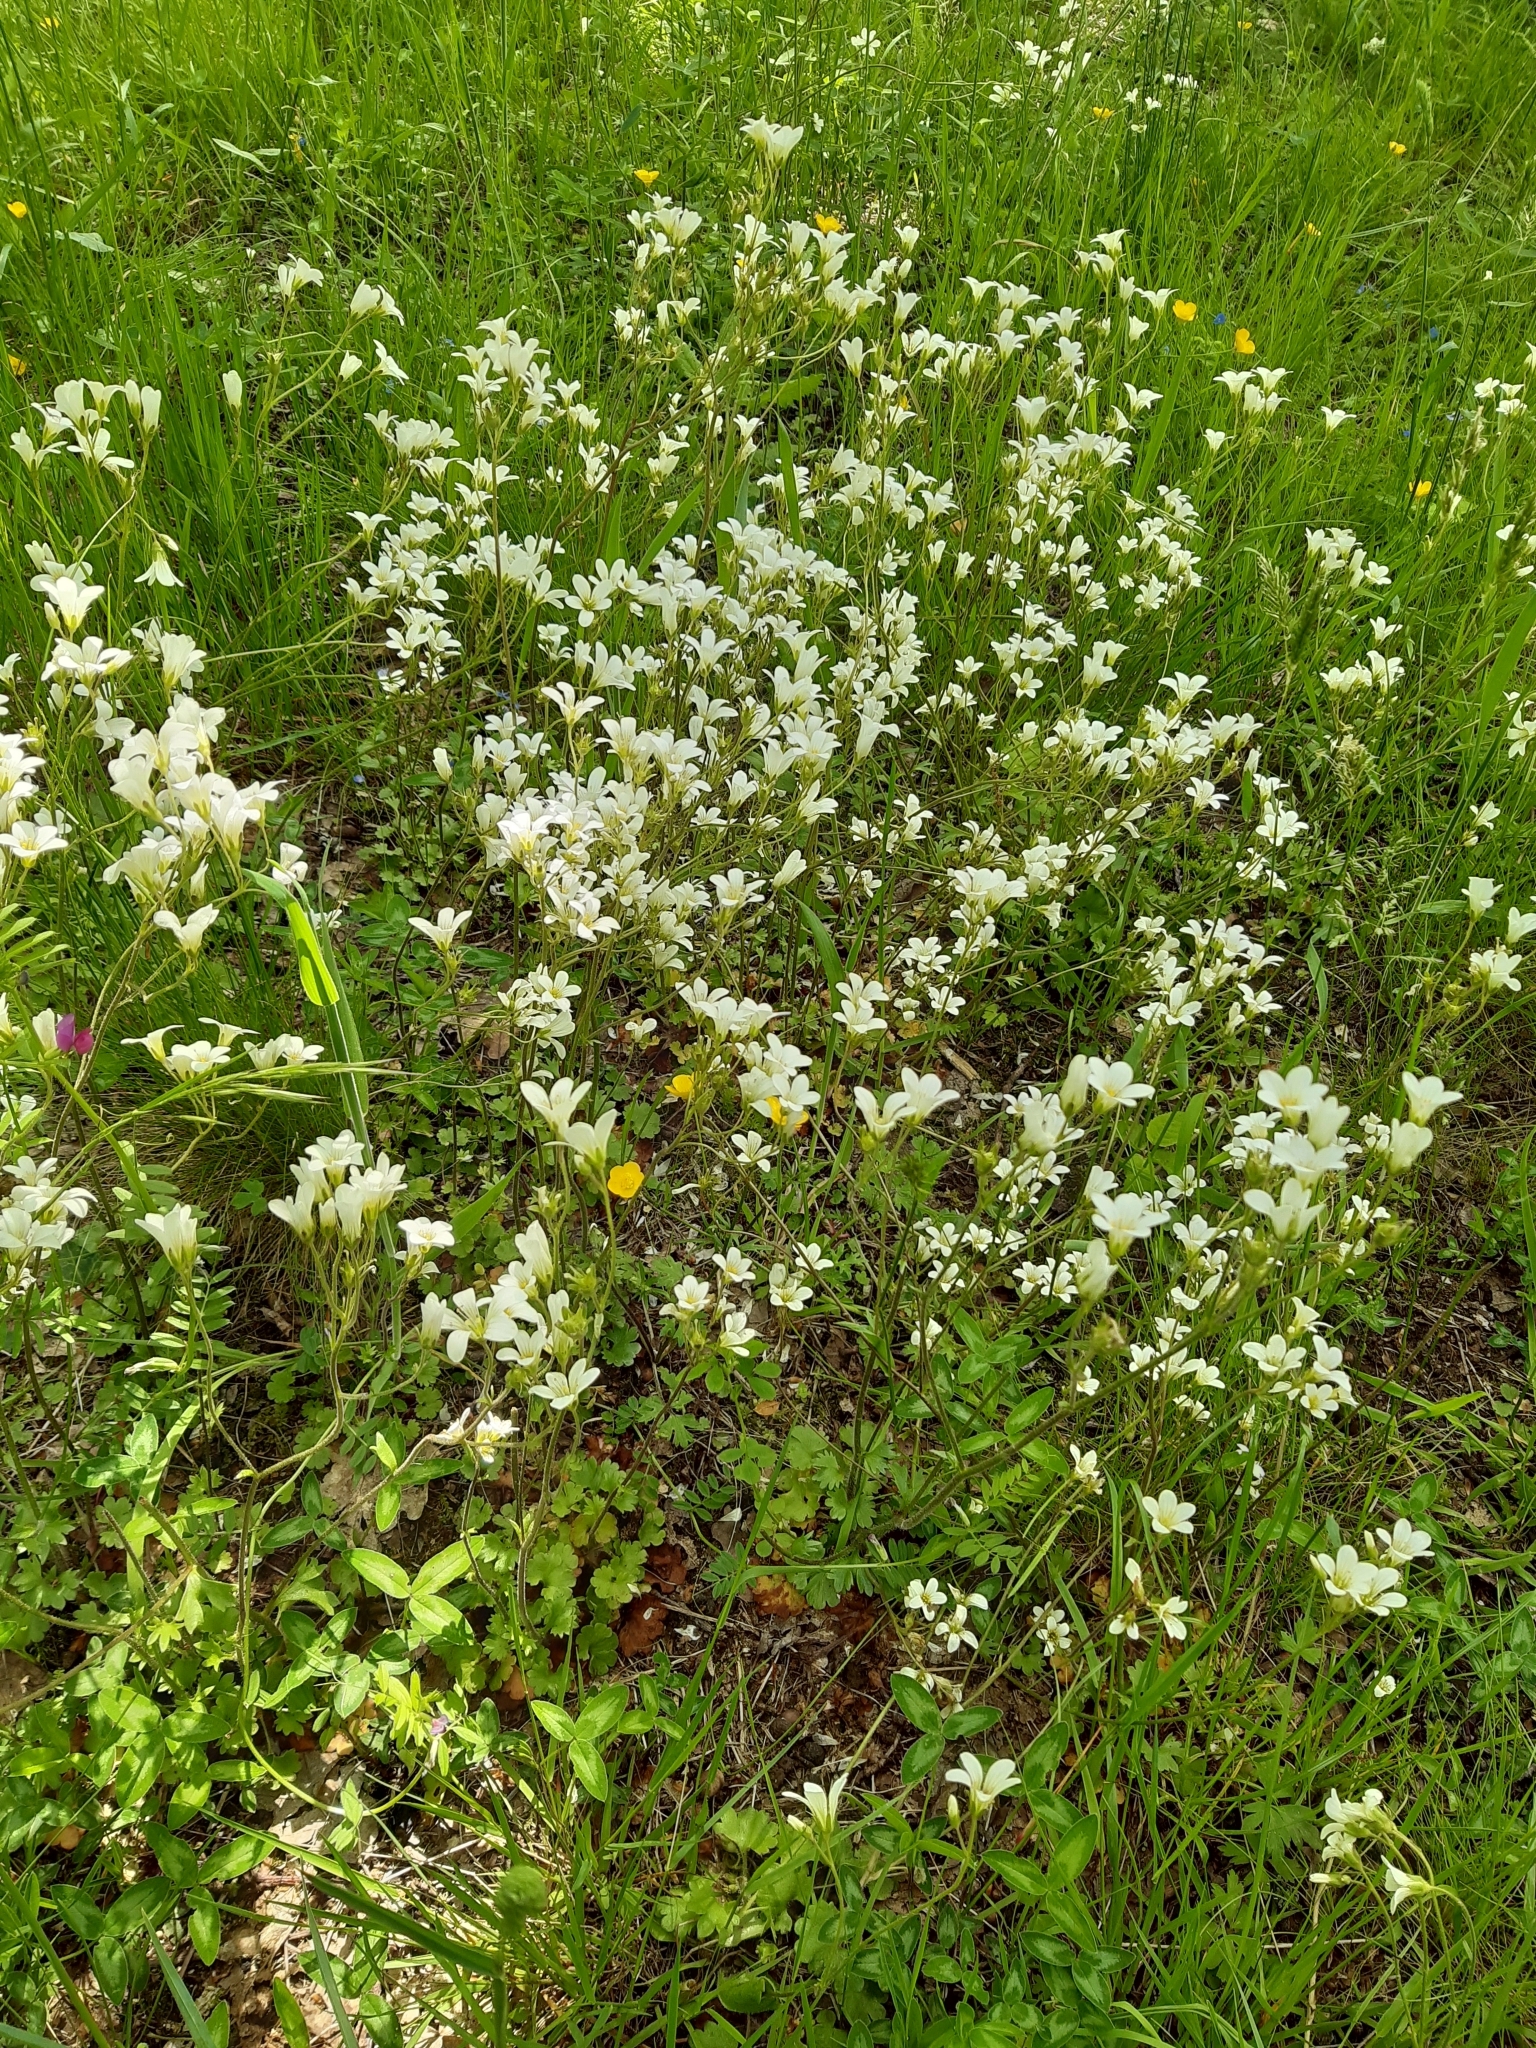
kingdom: Plantae
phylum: Tracheophyta
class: Magnoliopsida
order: Saxifragales
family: Saxifragaceae
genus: Saxifraga
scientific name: Saxifraga granulata
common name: Meadow saxifrage
